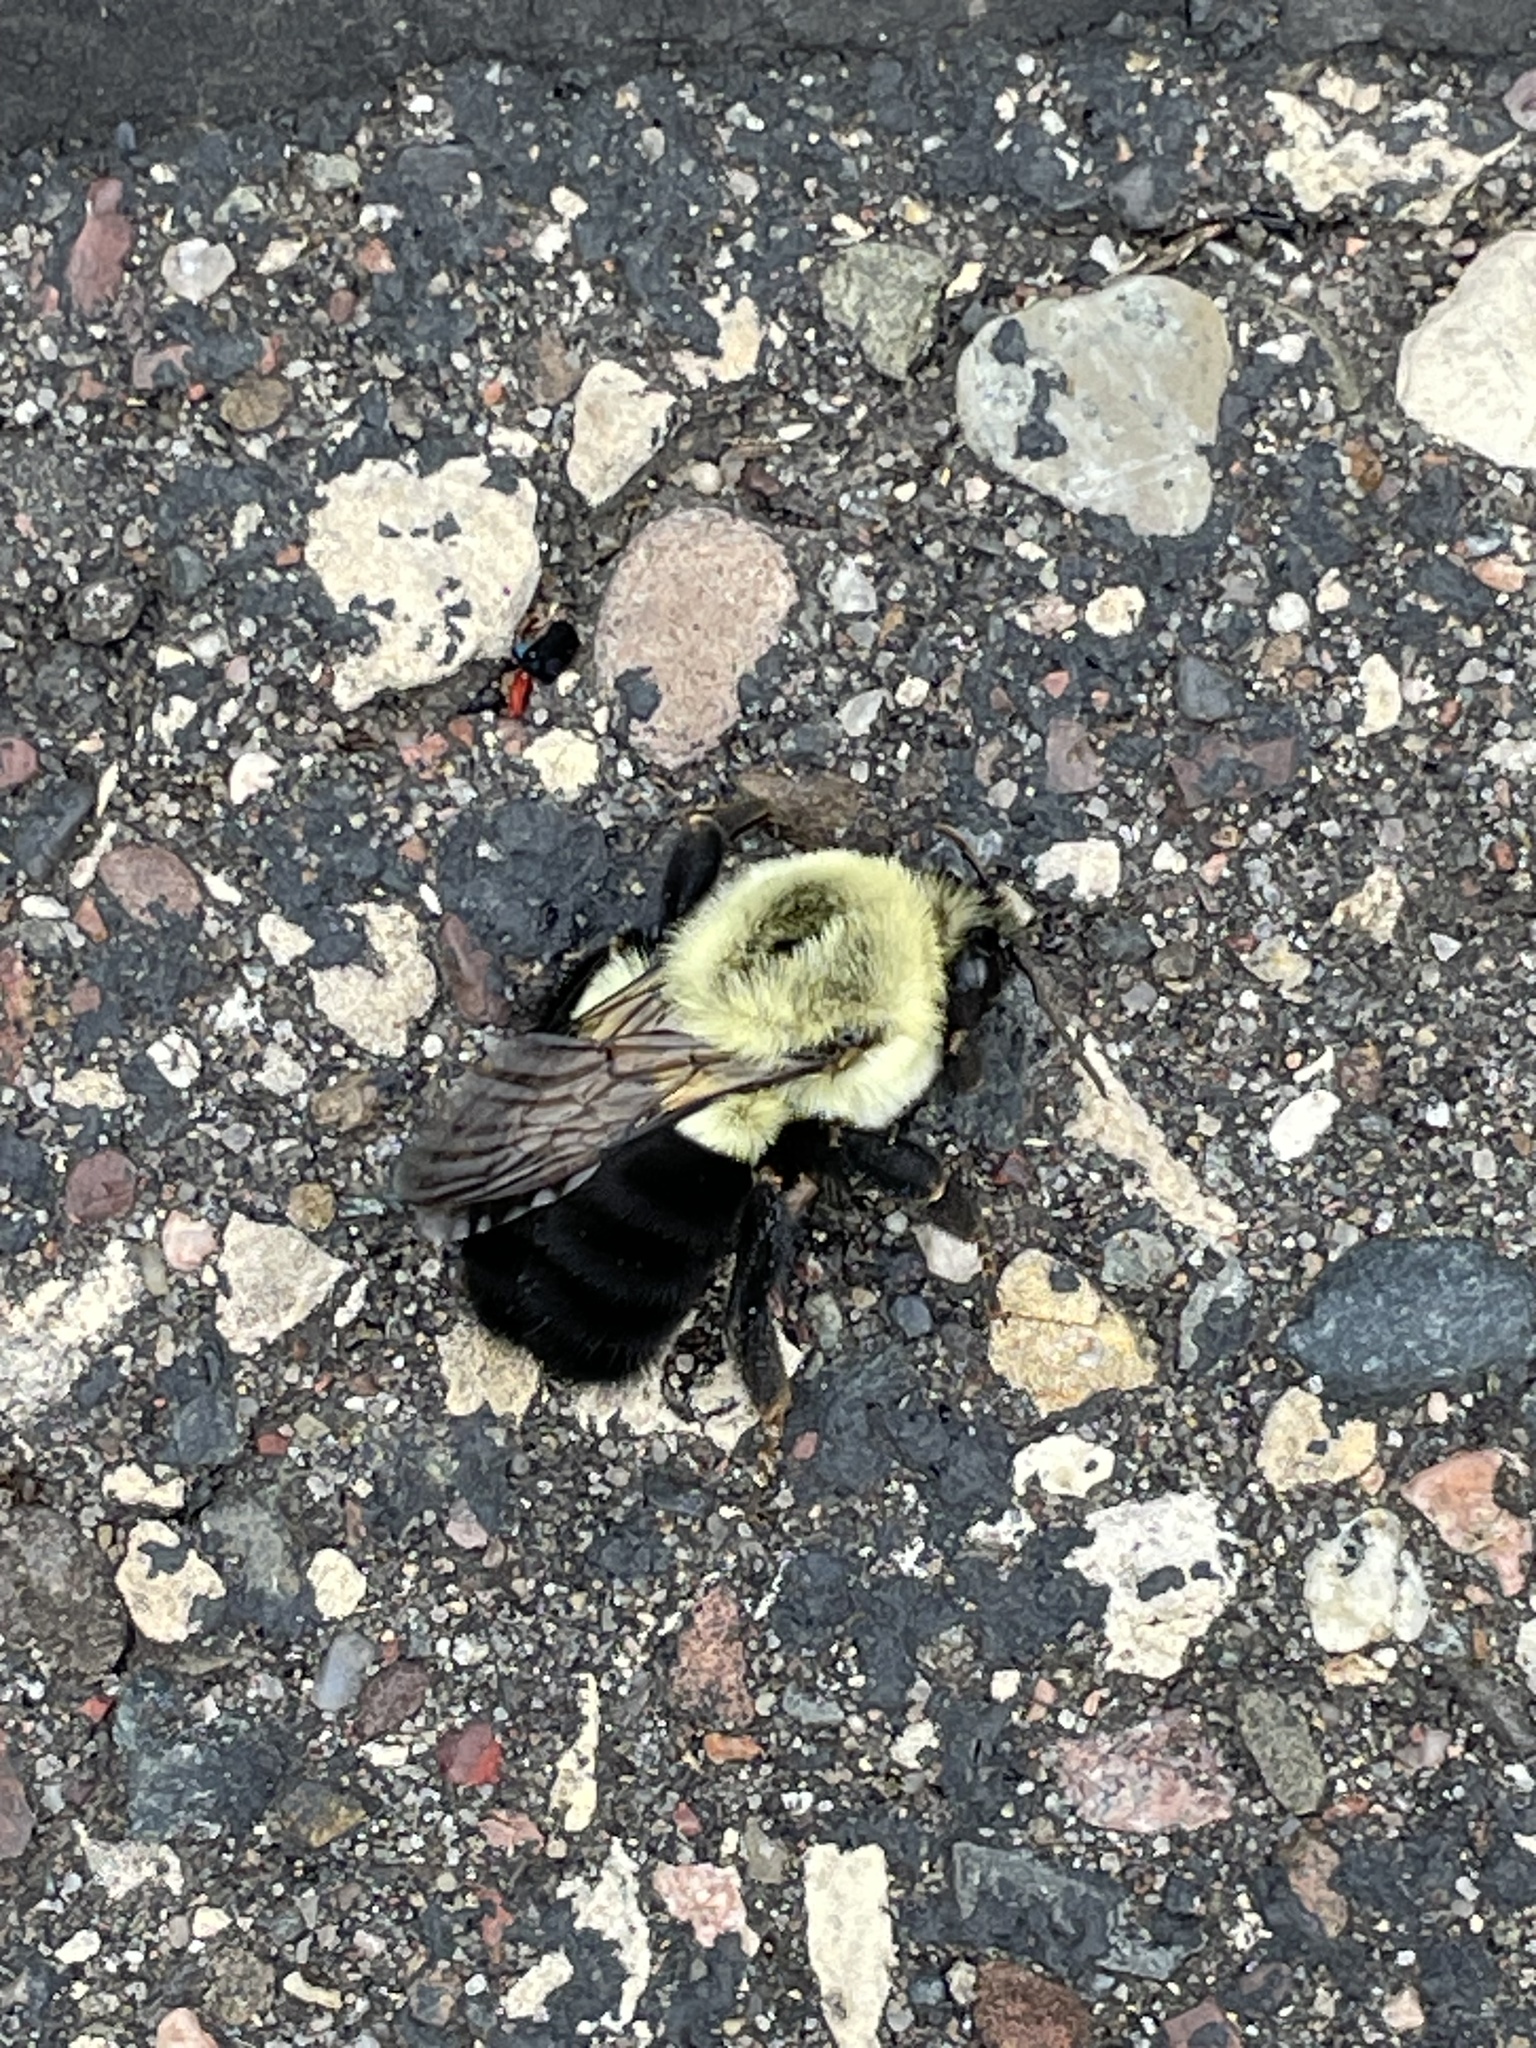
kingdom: Animalia
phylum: Arthropoda
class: Insecta
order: Hymenoptera
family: Apidae
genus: Bombus
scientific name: Bombus impatiens
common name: Common eastern bumble bee
